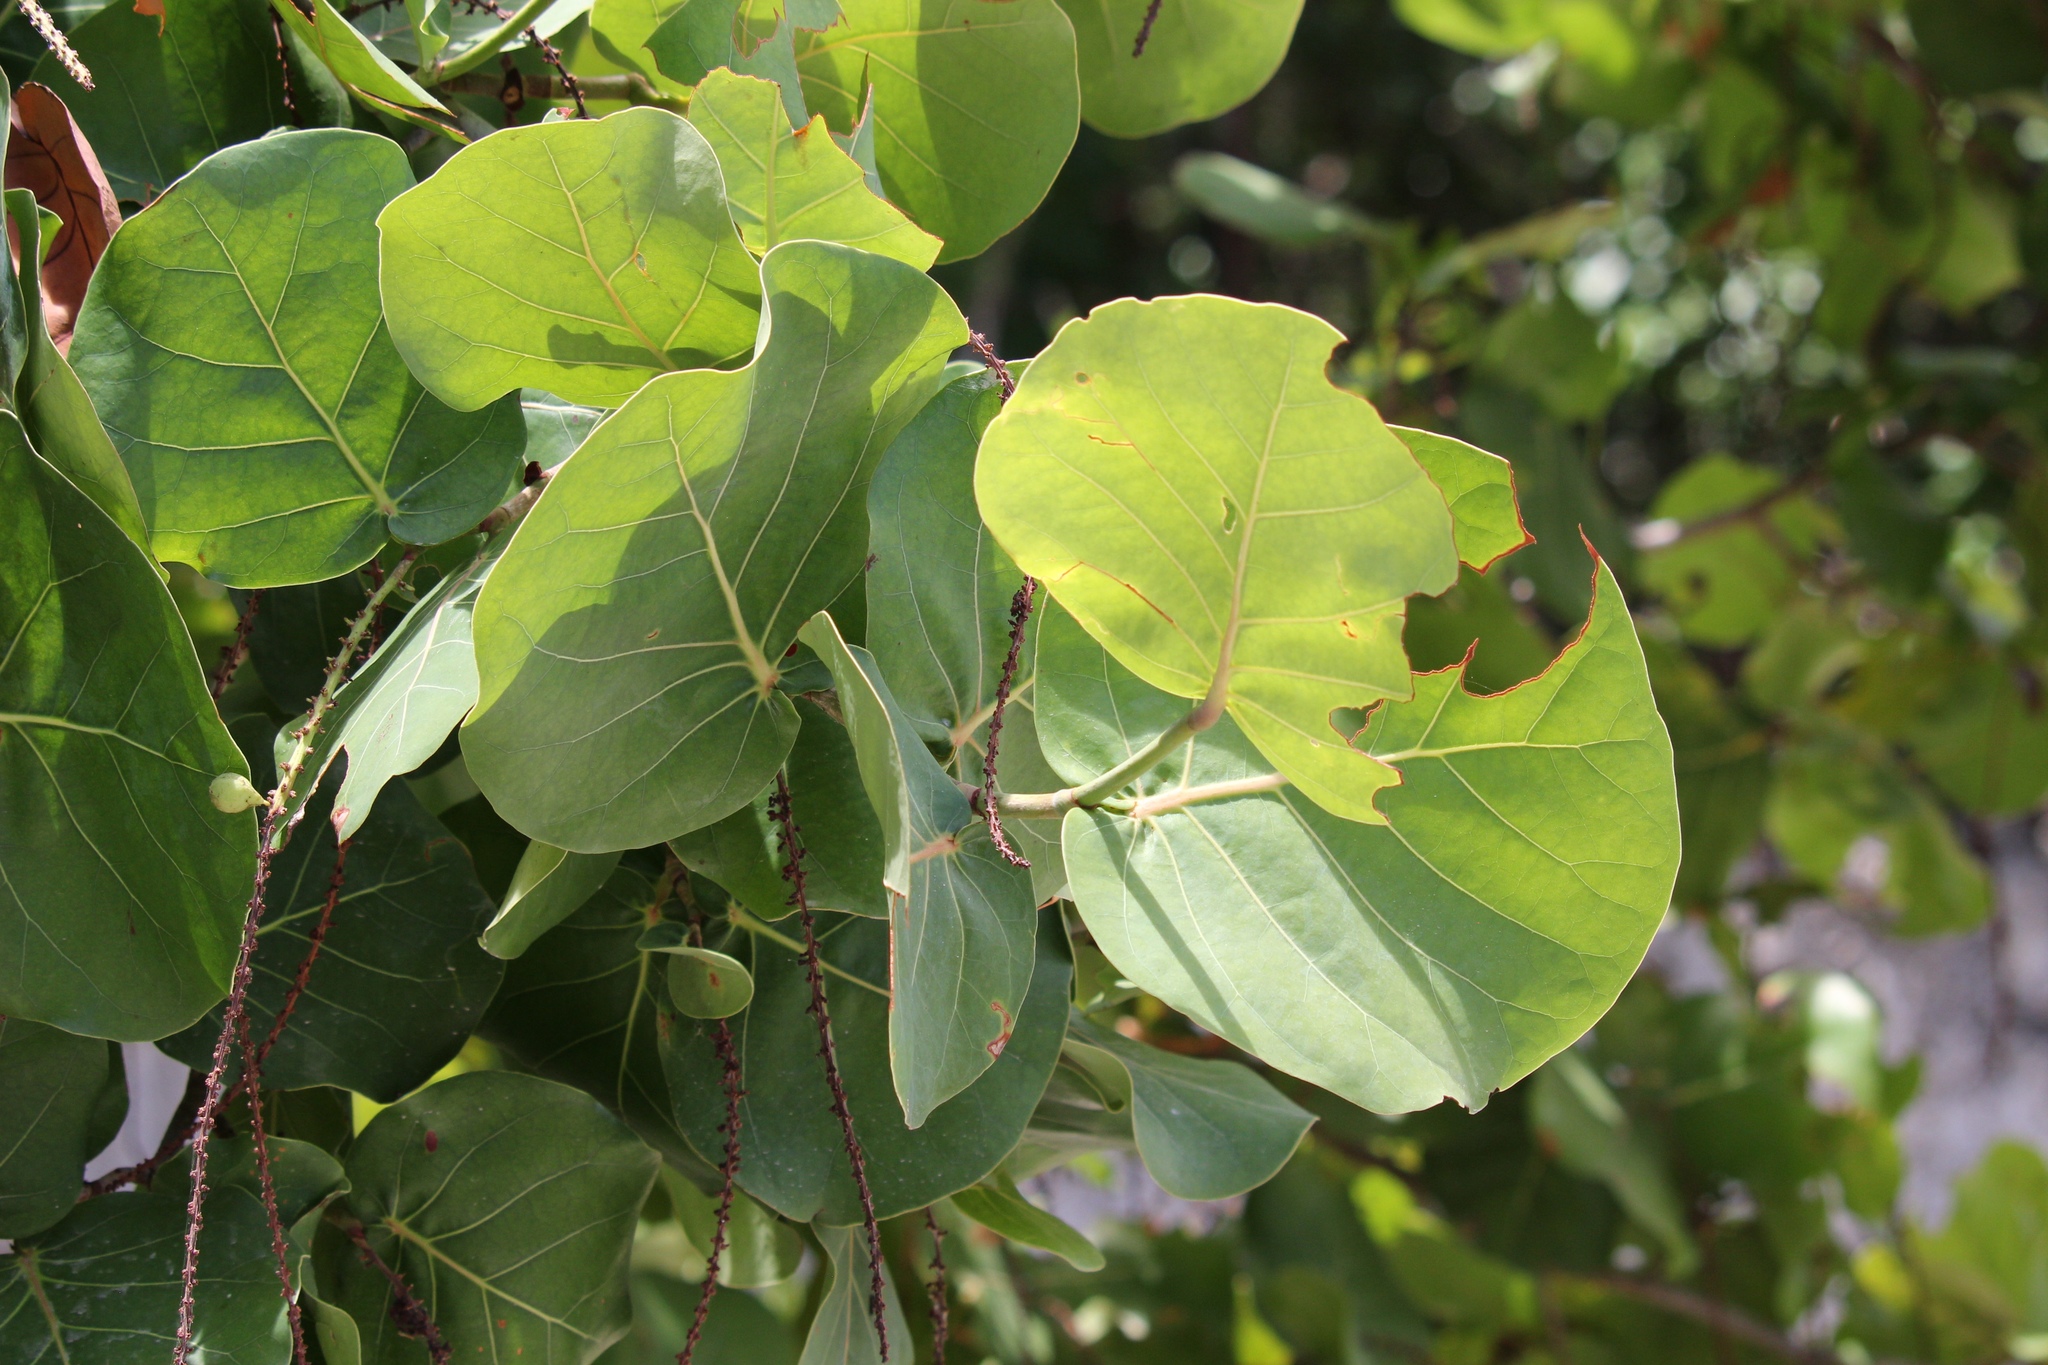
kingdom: Plantae
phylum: Tracheophyta
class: Magnoliopsida
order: Caryophyllales
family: Polygonaceae
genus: Coccoloba
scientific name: Coccoloba uvifera
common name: Seagrape
